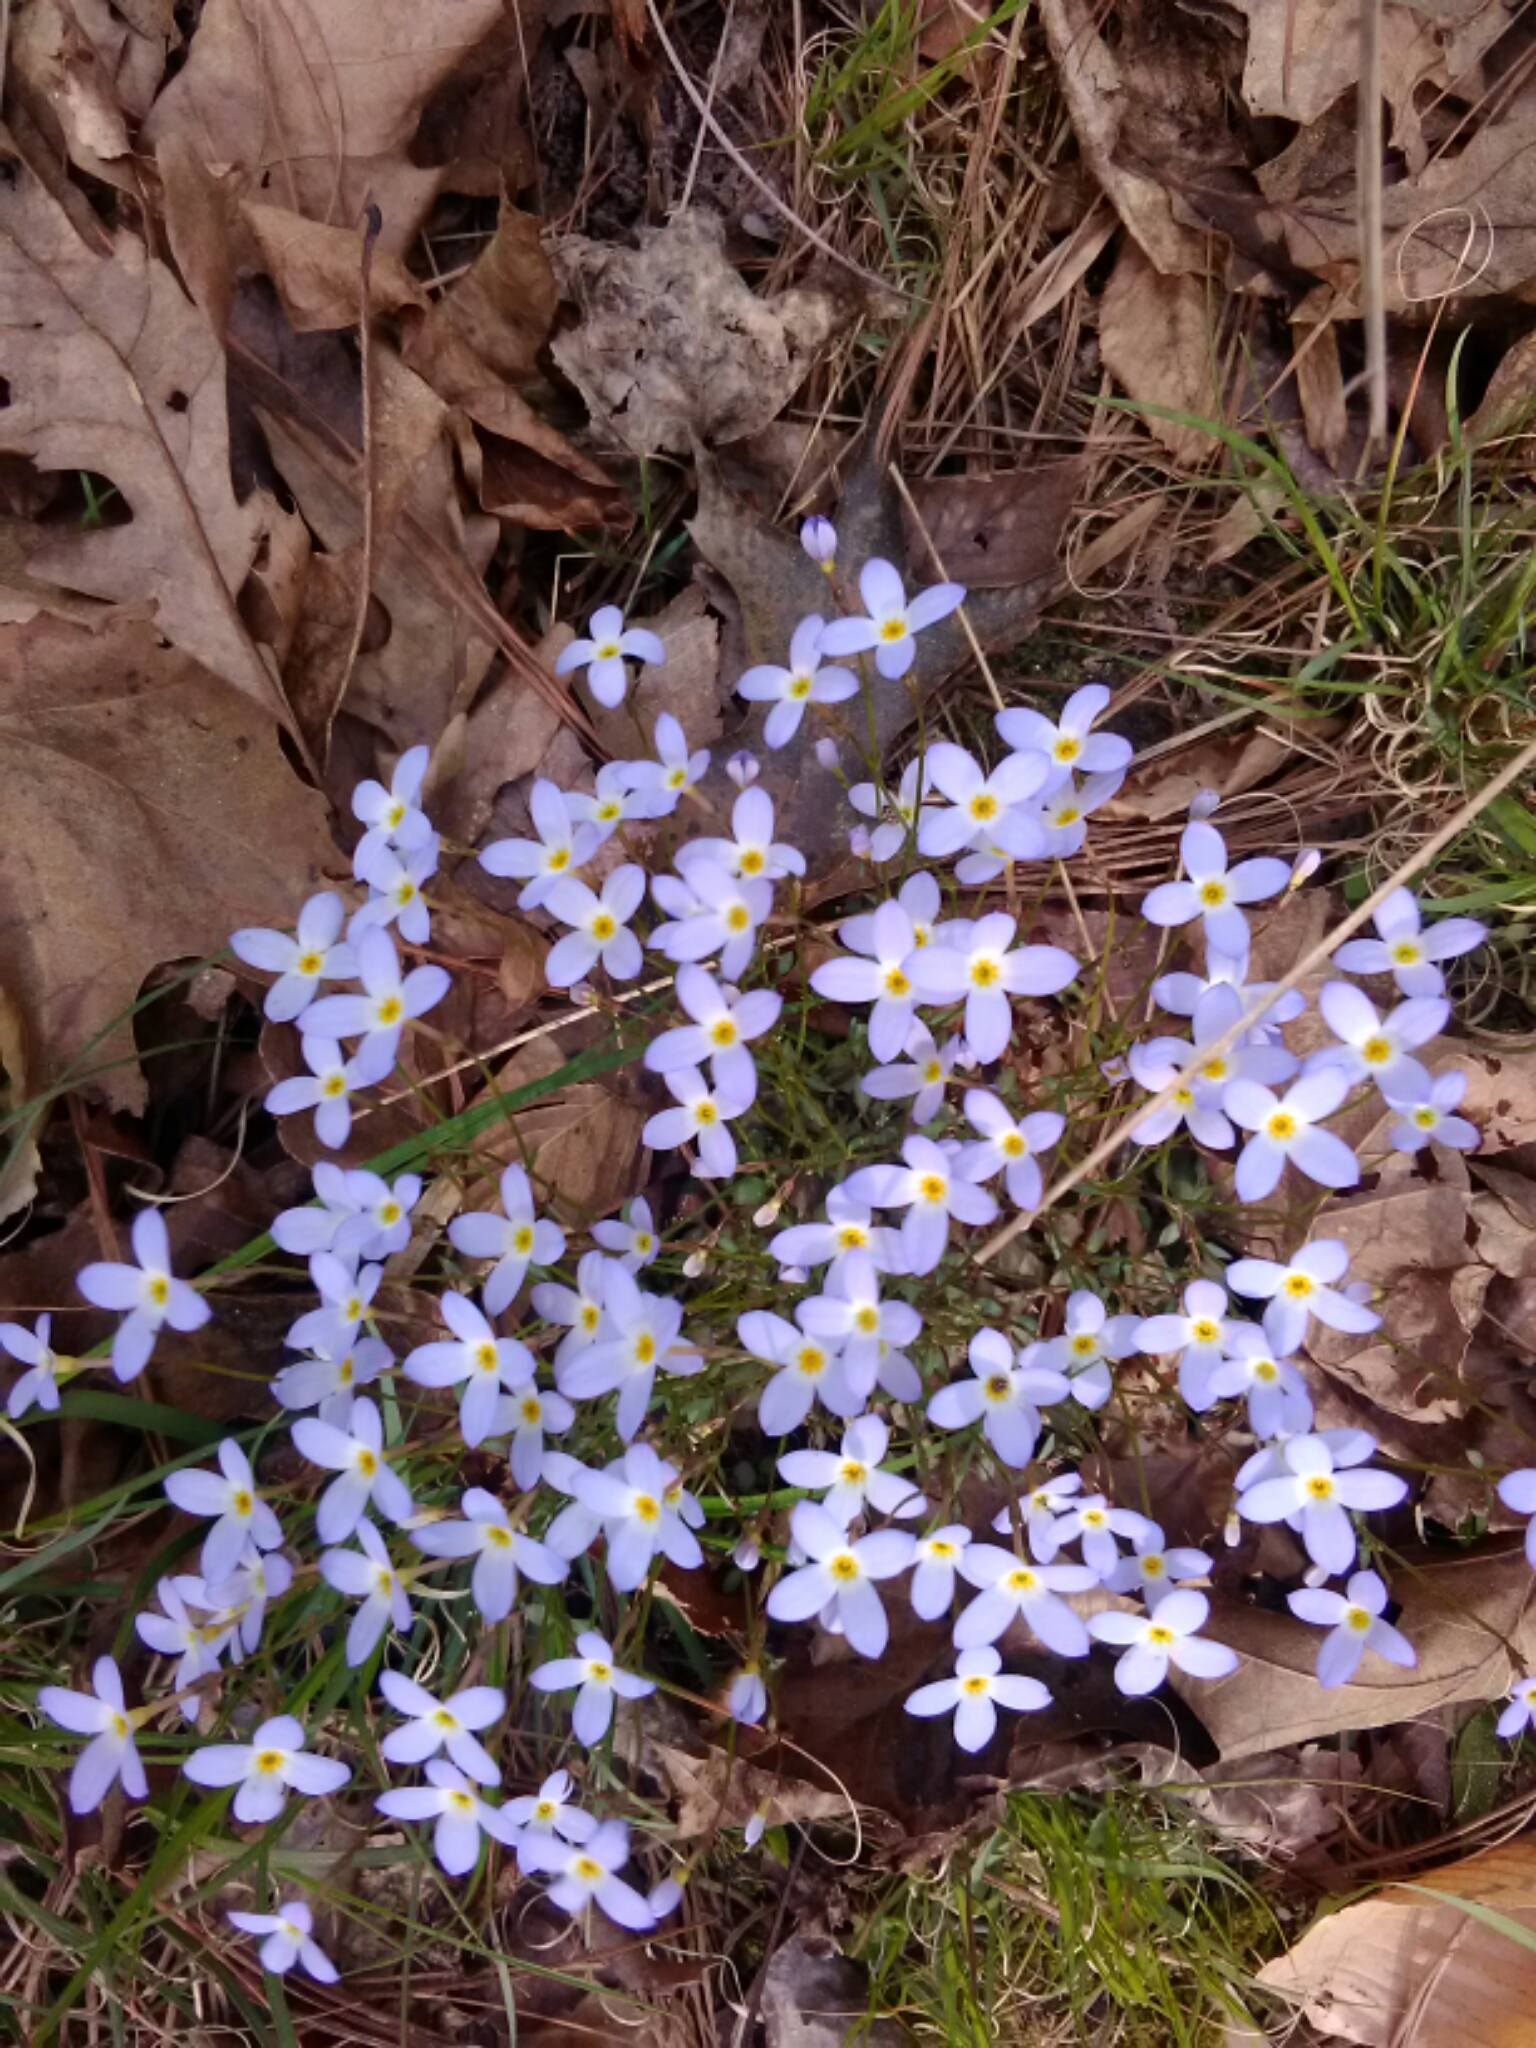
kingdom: Plantae
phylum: Tracheophyta
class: Magnoliopsida
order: Gentianales
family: Rubiaceae
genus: Houstonia
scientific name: Houstonia caerulea
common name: Bluets
